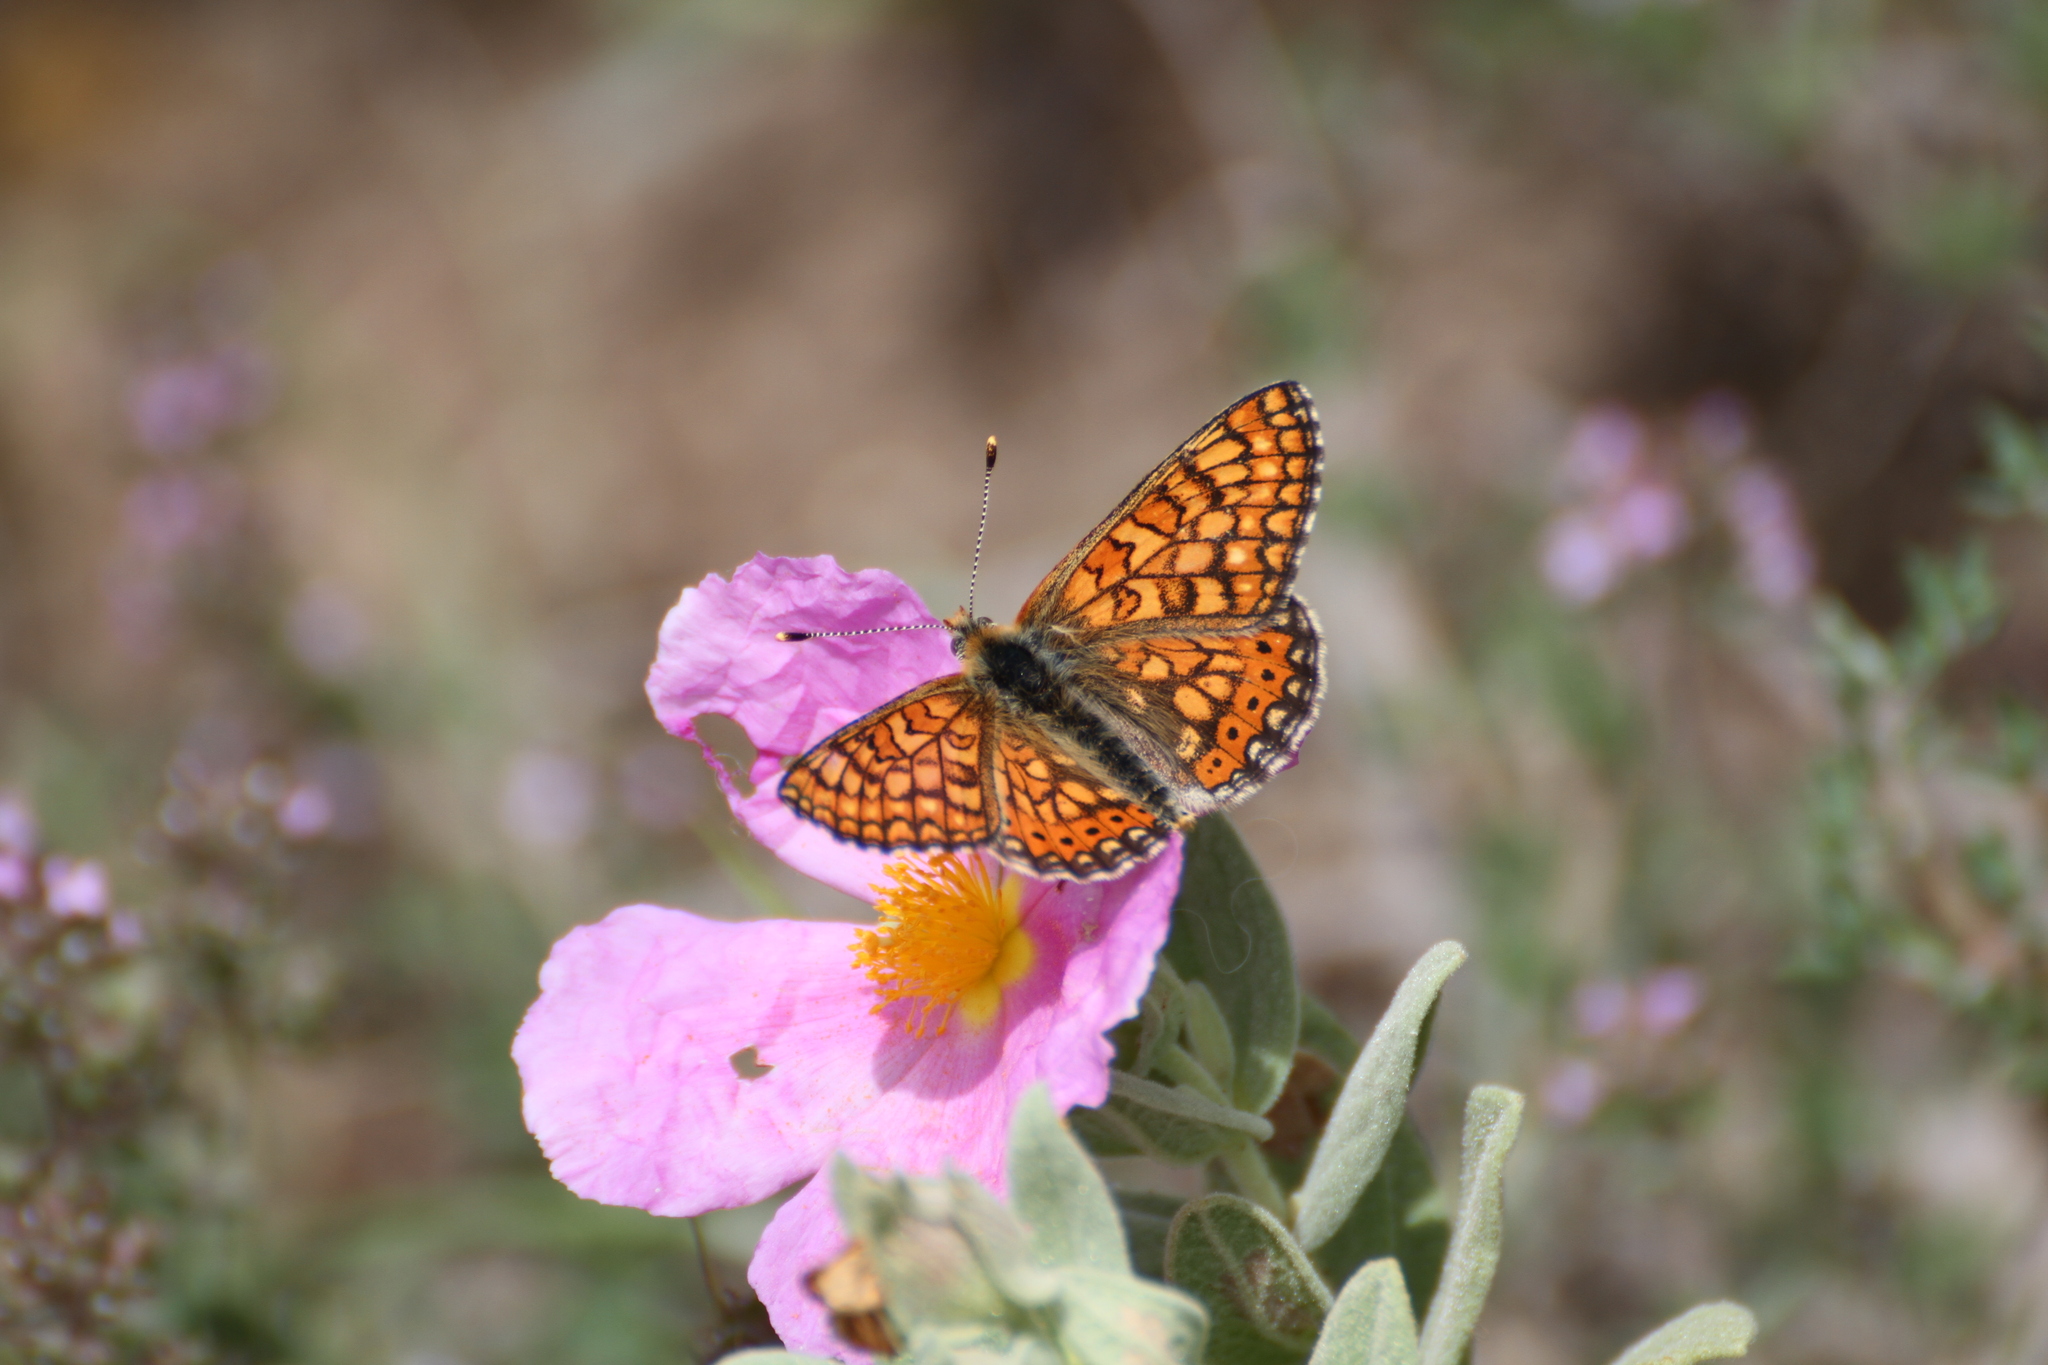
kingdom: Animalia
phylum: Arthropoda
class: Insecta
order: Lepidoptera
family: Nymphalidae
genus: Euphydryas
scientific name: Euphydryas aurinia
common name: Marsh fritillary
